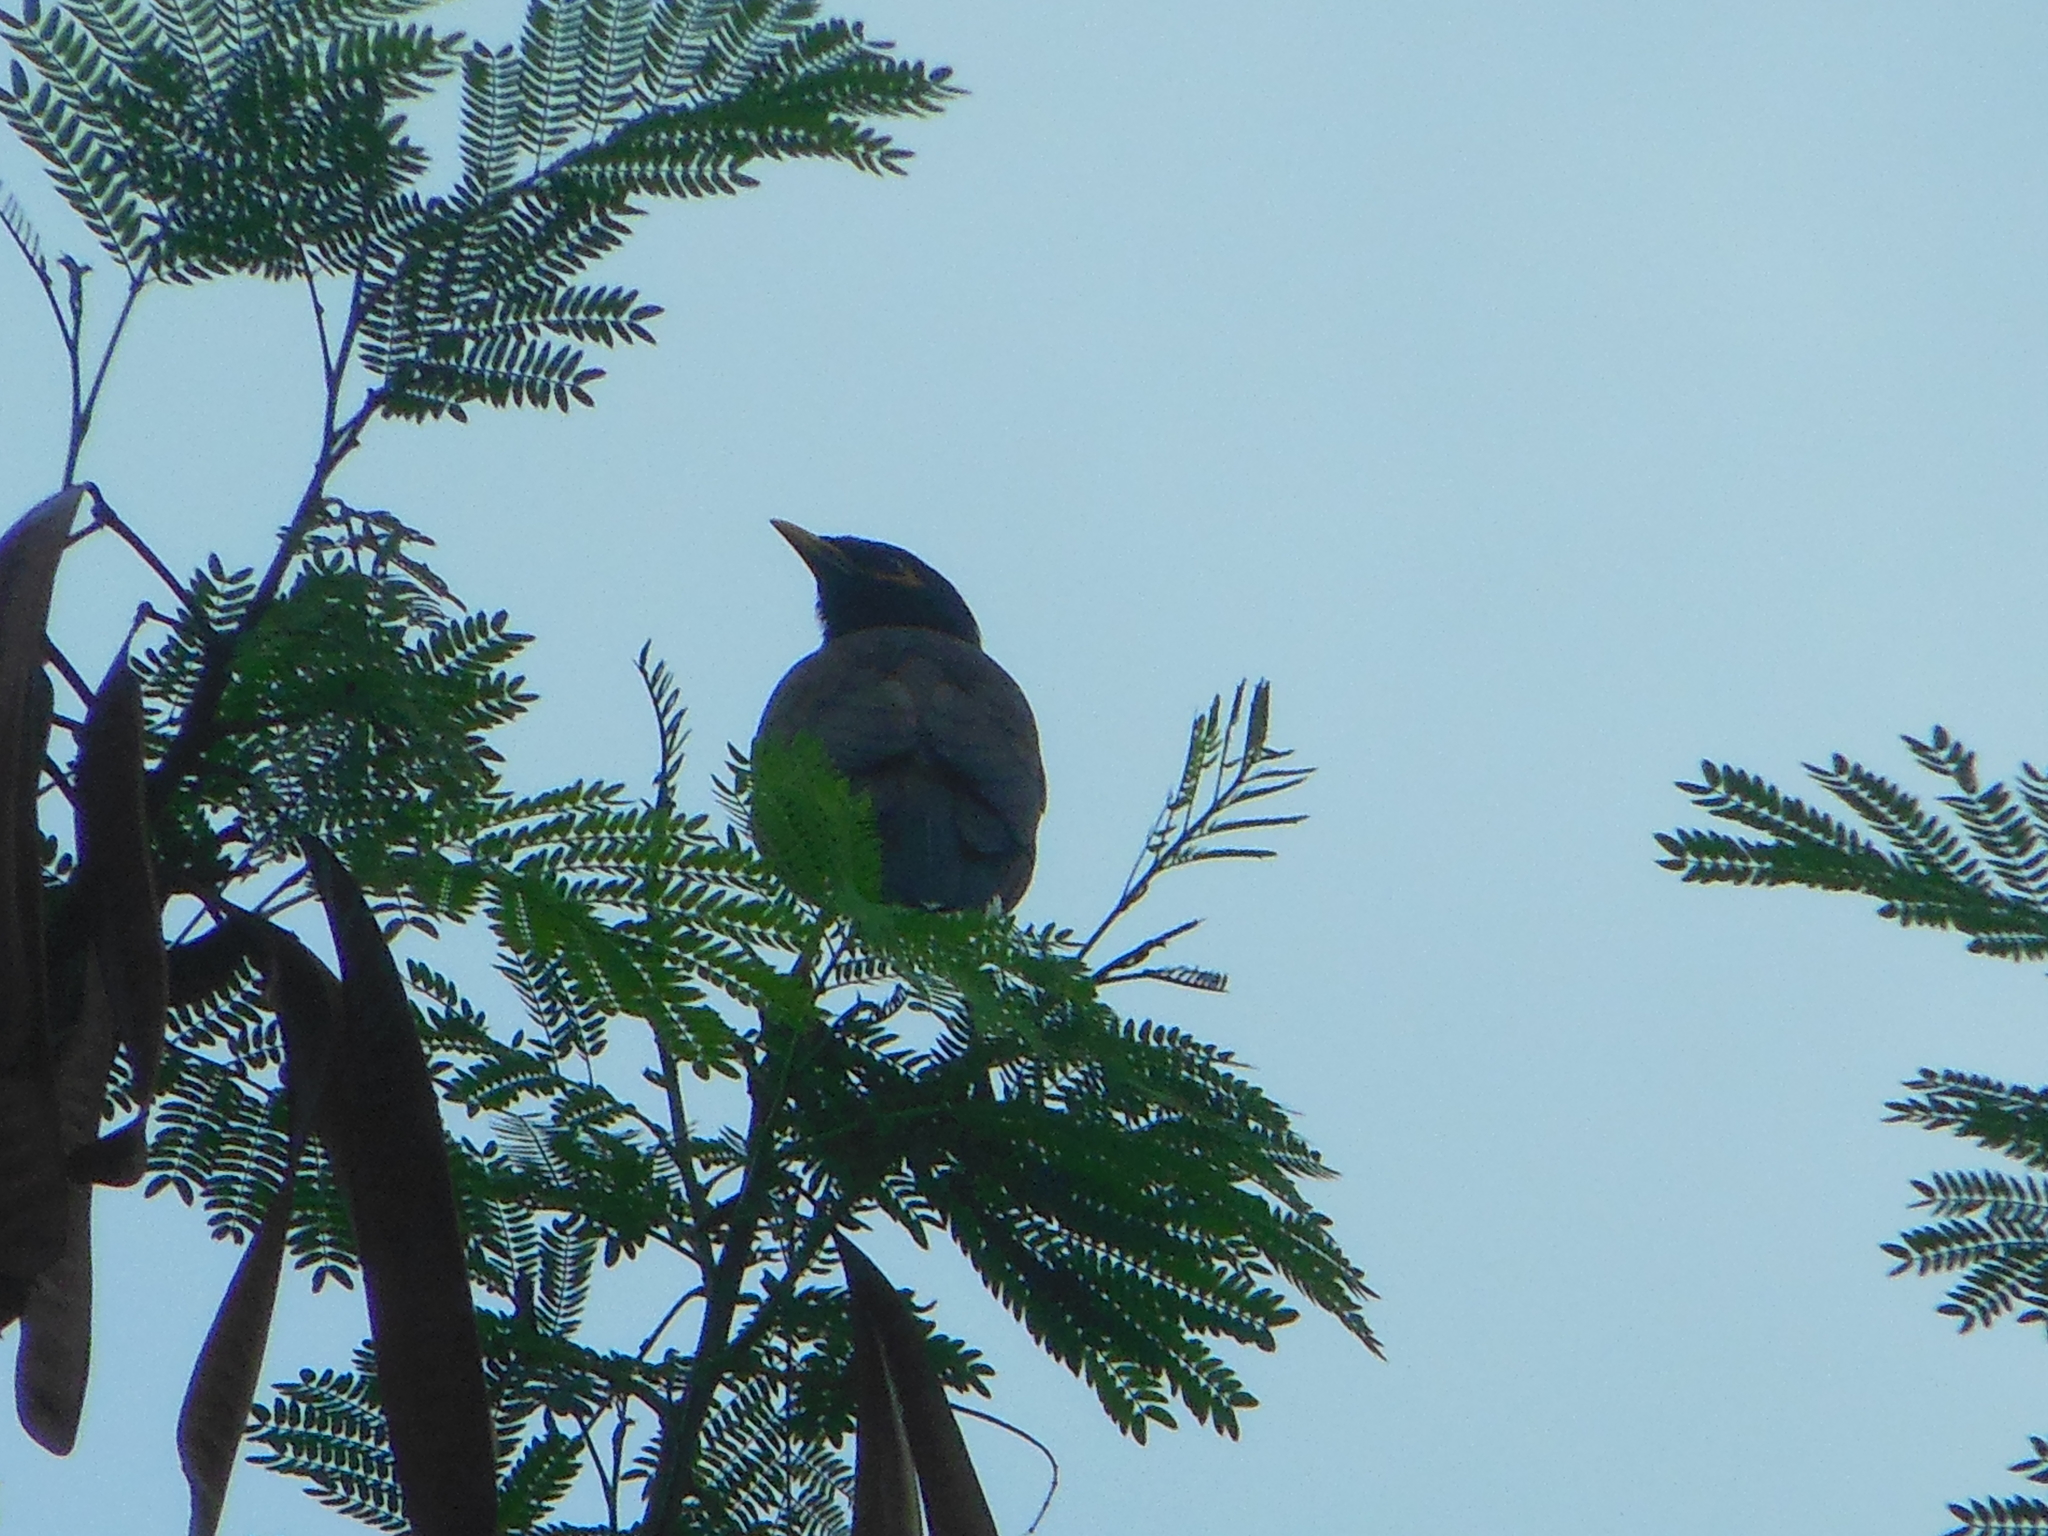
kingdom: Animalia
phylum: Chordata
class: Aves
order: Passeriformes
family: Sturnidae
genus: Acridotheres
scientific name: Acridotheres tristis
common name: Common myna
